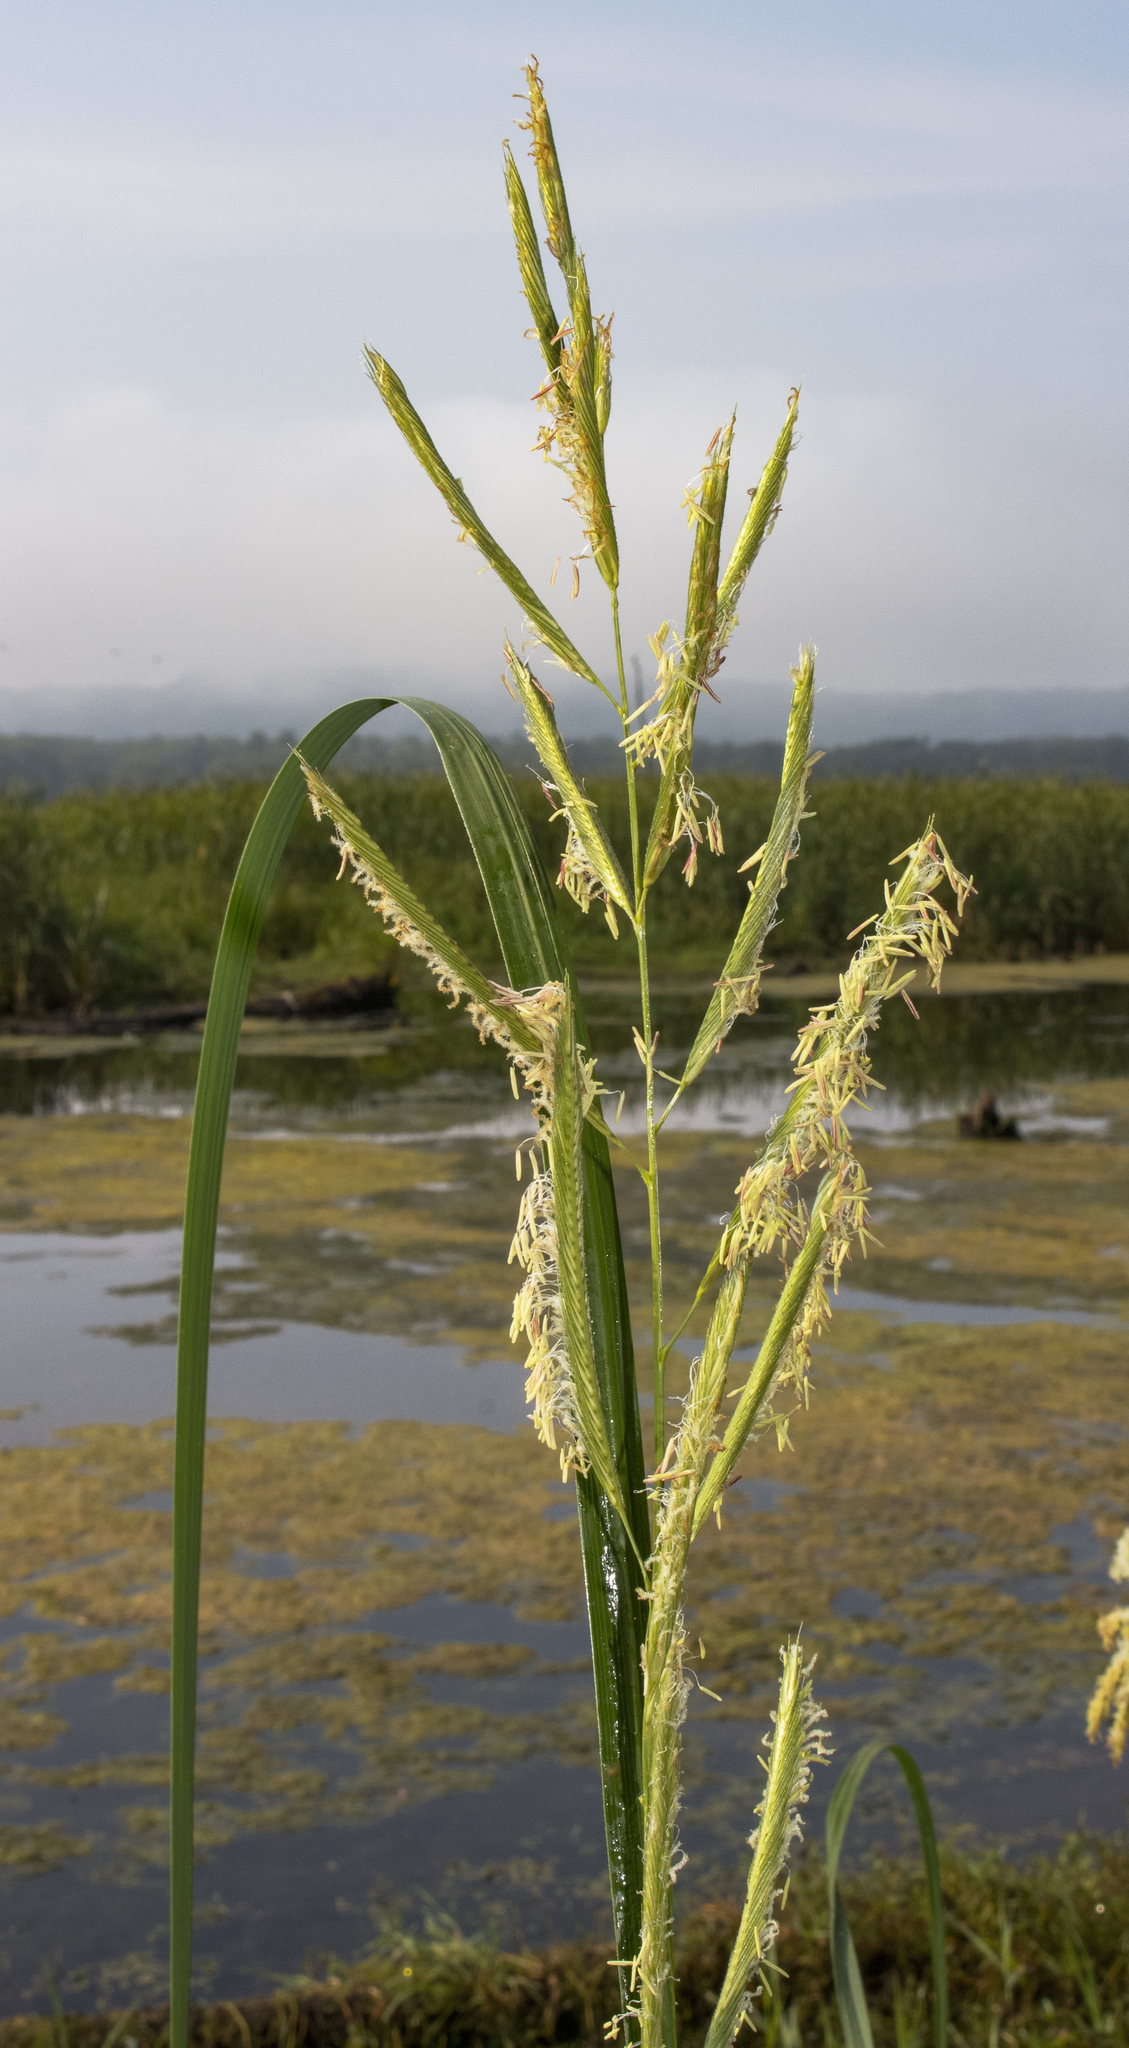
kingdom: Plantae
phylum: Tracheophyta
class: Liliopsida
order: Poales
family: Poaceae
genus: Sporobolus
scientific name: Sporobolus michauxianus
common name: Freshwater cordgrass
